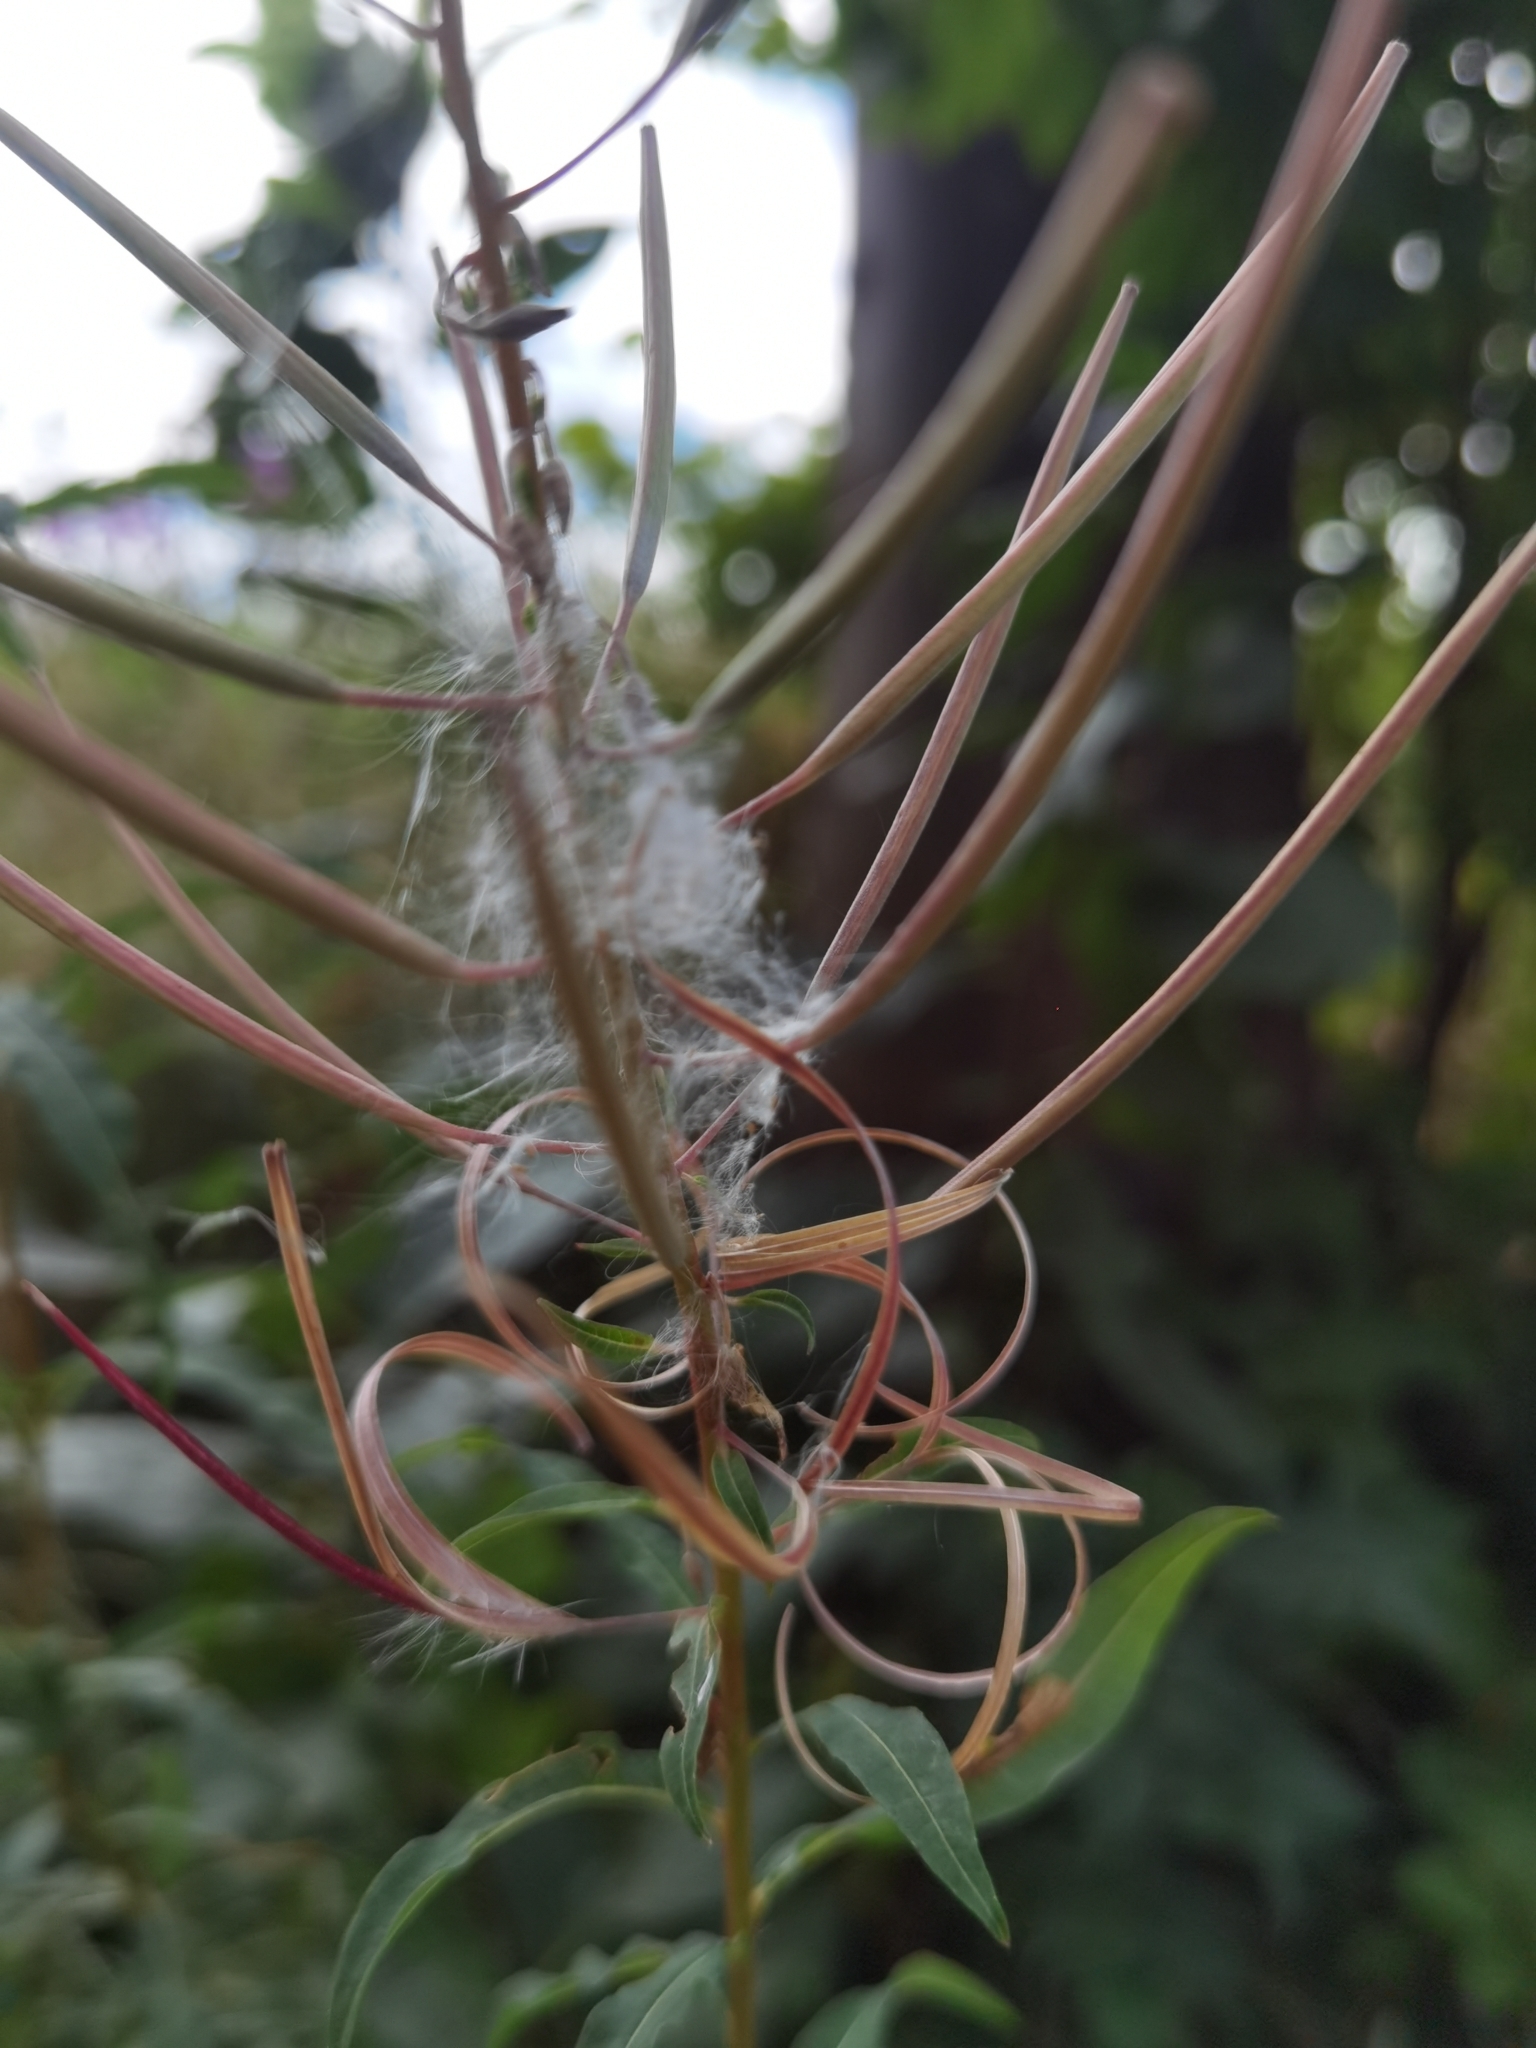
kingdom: Plantae
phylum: Tracheophyta
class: Magnoliopsida
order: Myrtales
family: Onagraceae
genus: Chamaenerion
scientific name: Chamaenerion angustifolium
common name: Fireweed
